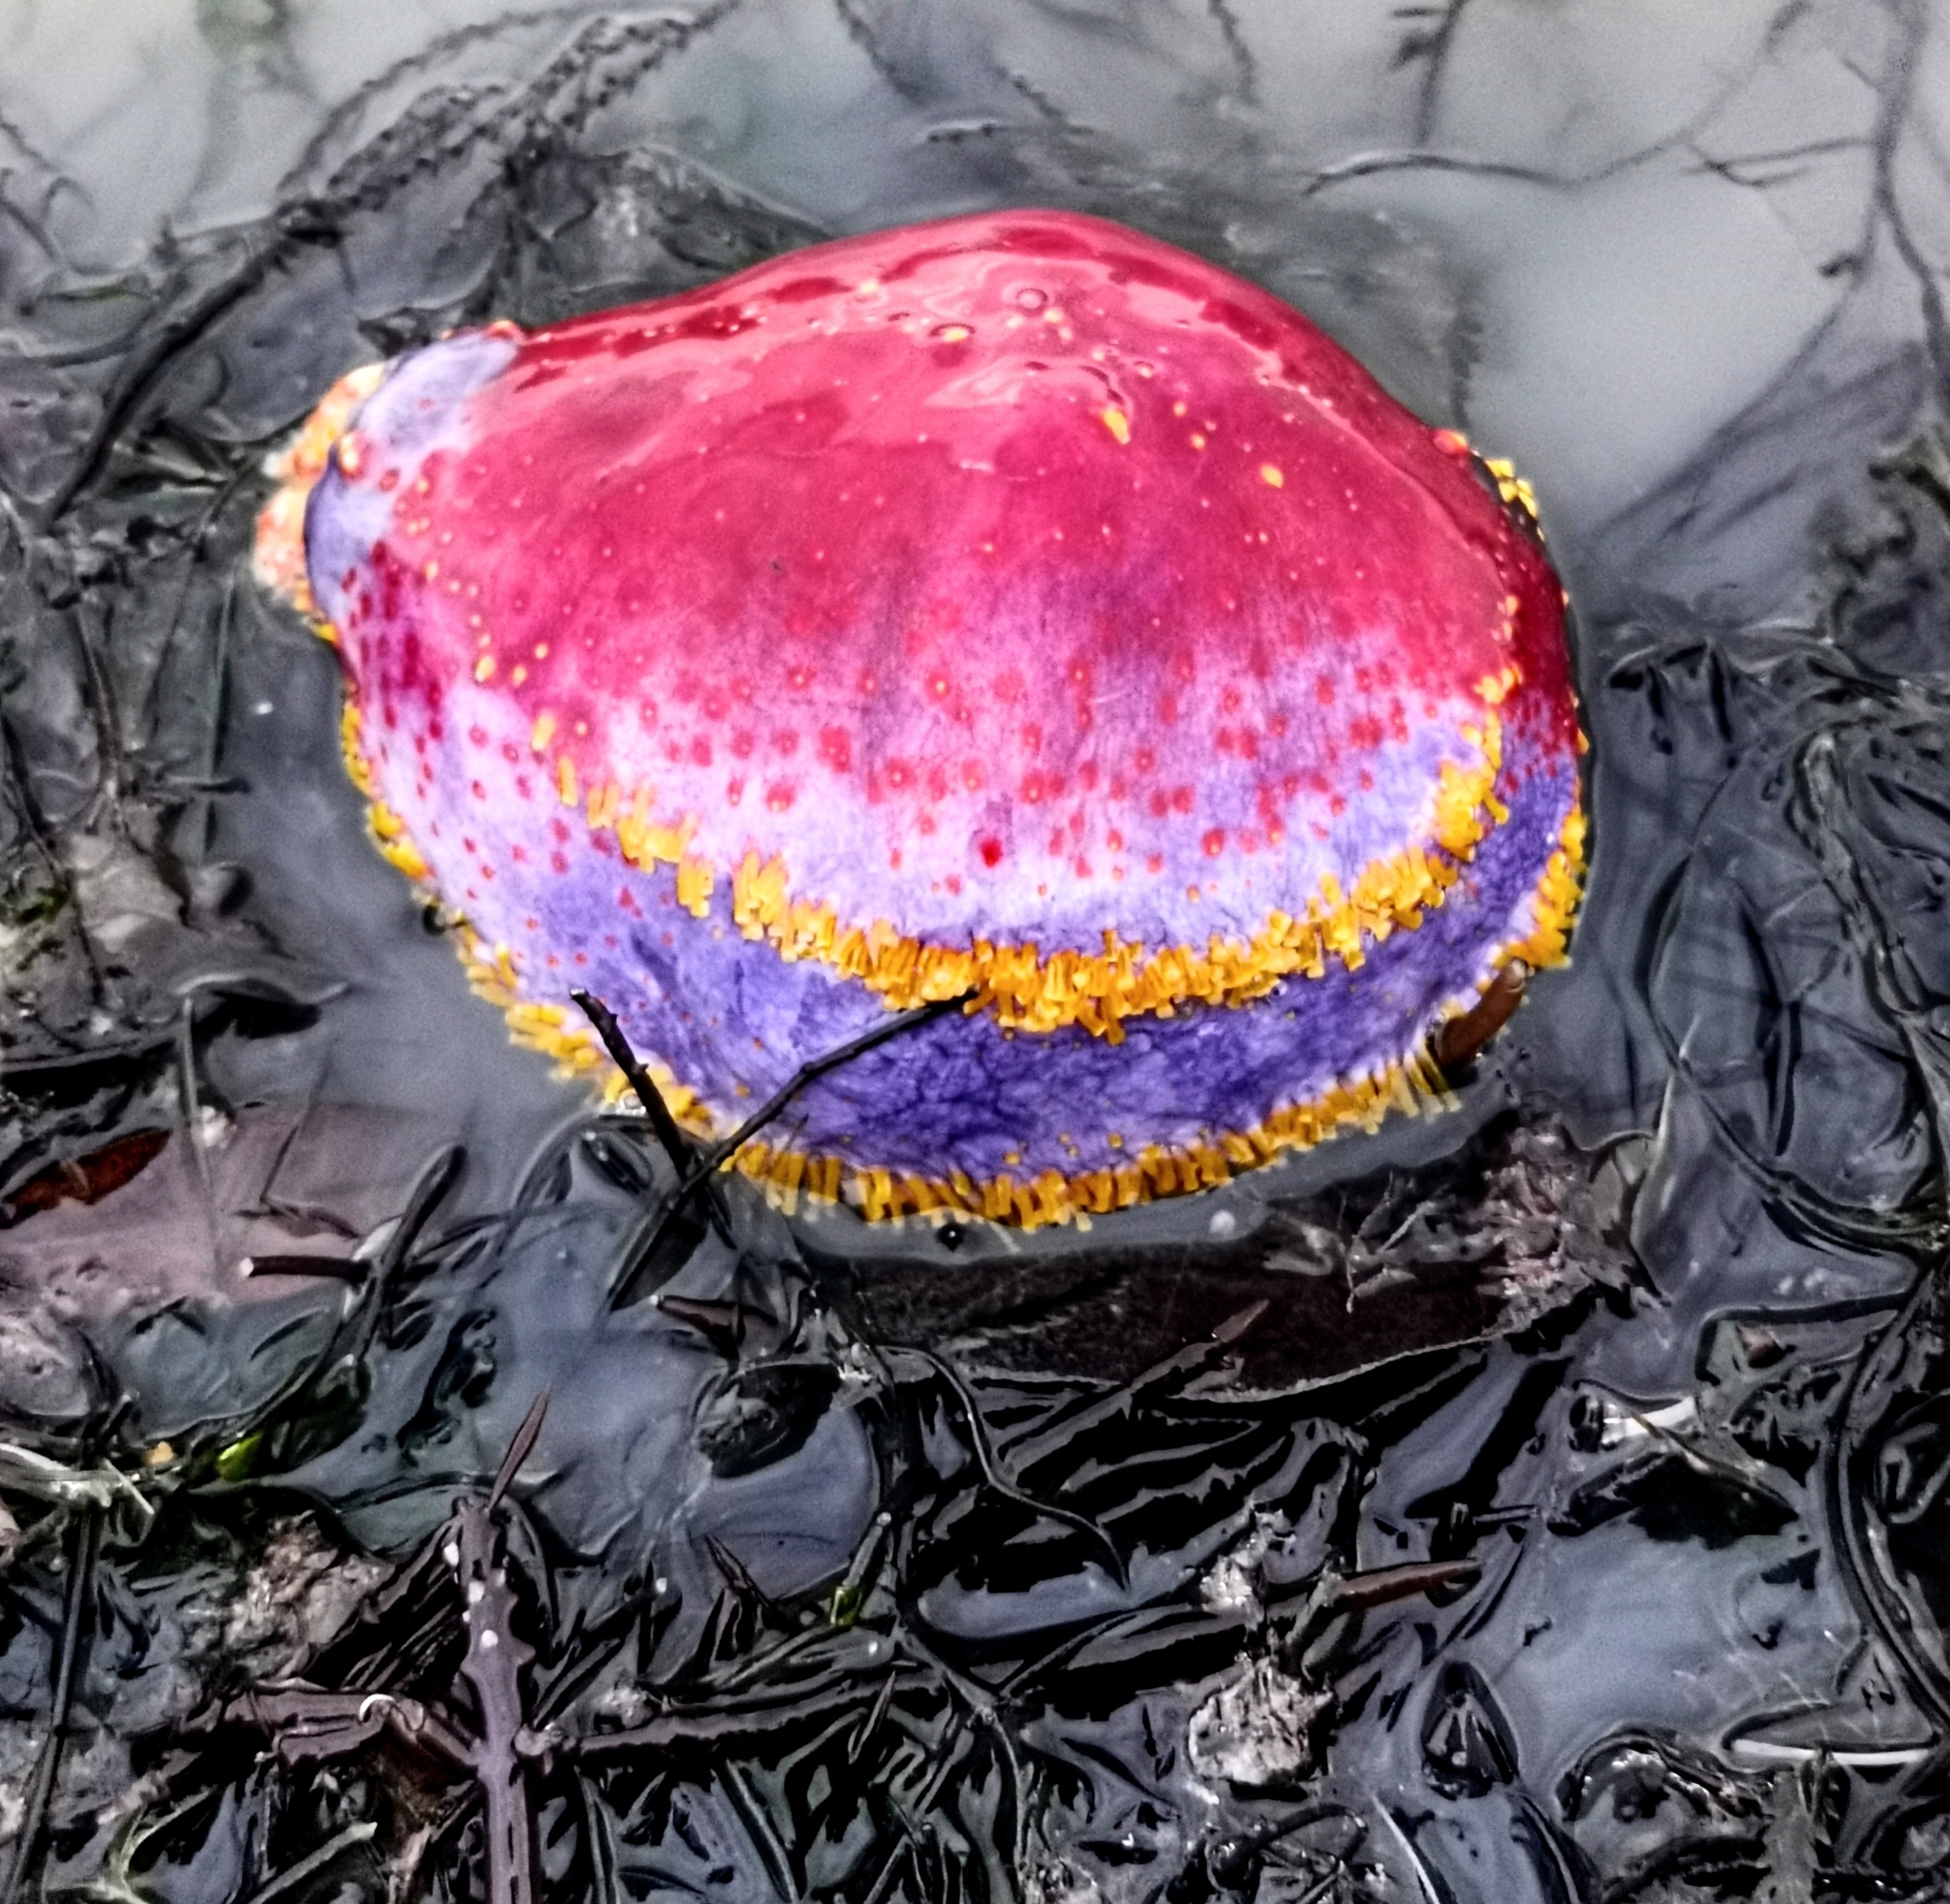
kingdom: Animalia
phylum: Echinodermata
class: Holothuroidea
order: Dendrochirotida
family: Cucumariidae
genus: Pseudocolochirus
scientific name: Pseudocolochirus violaceus
